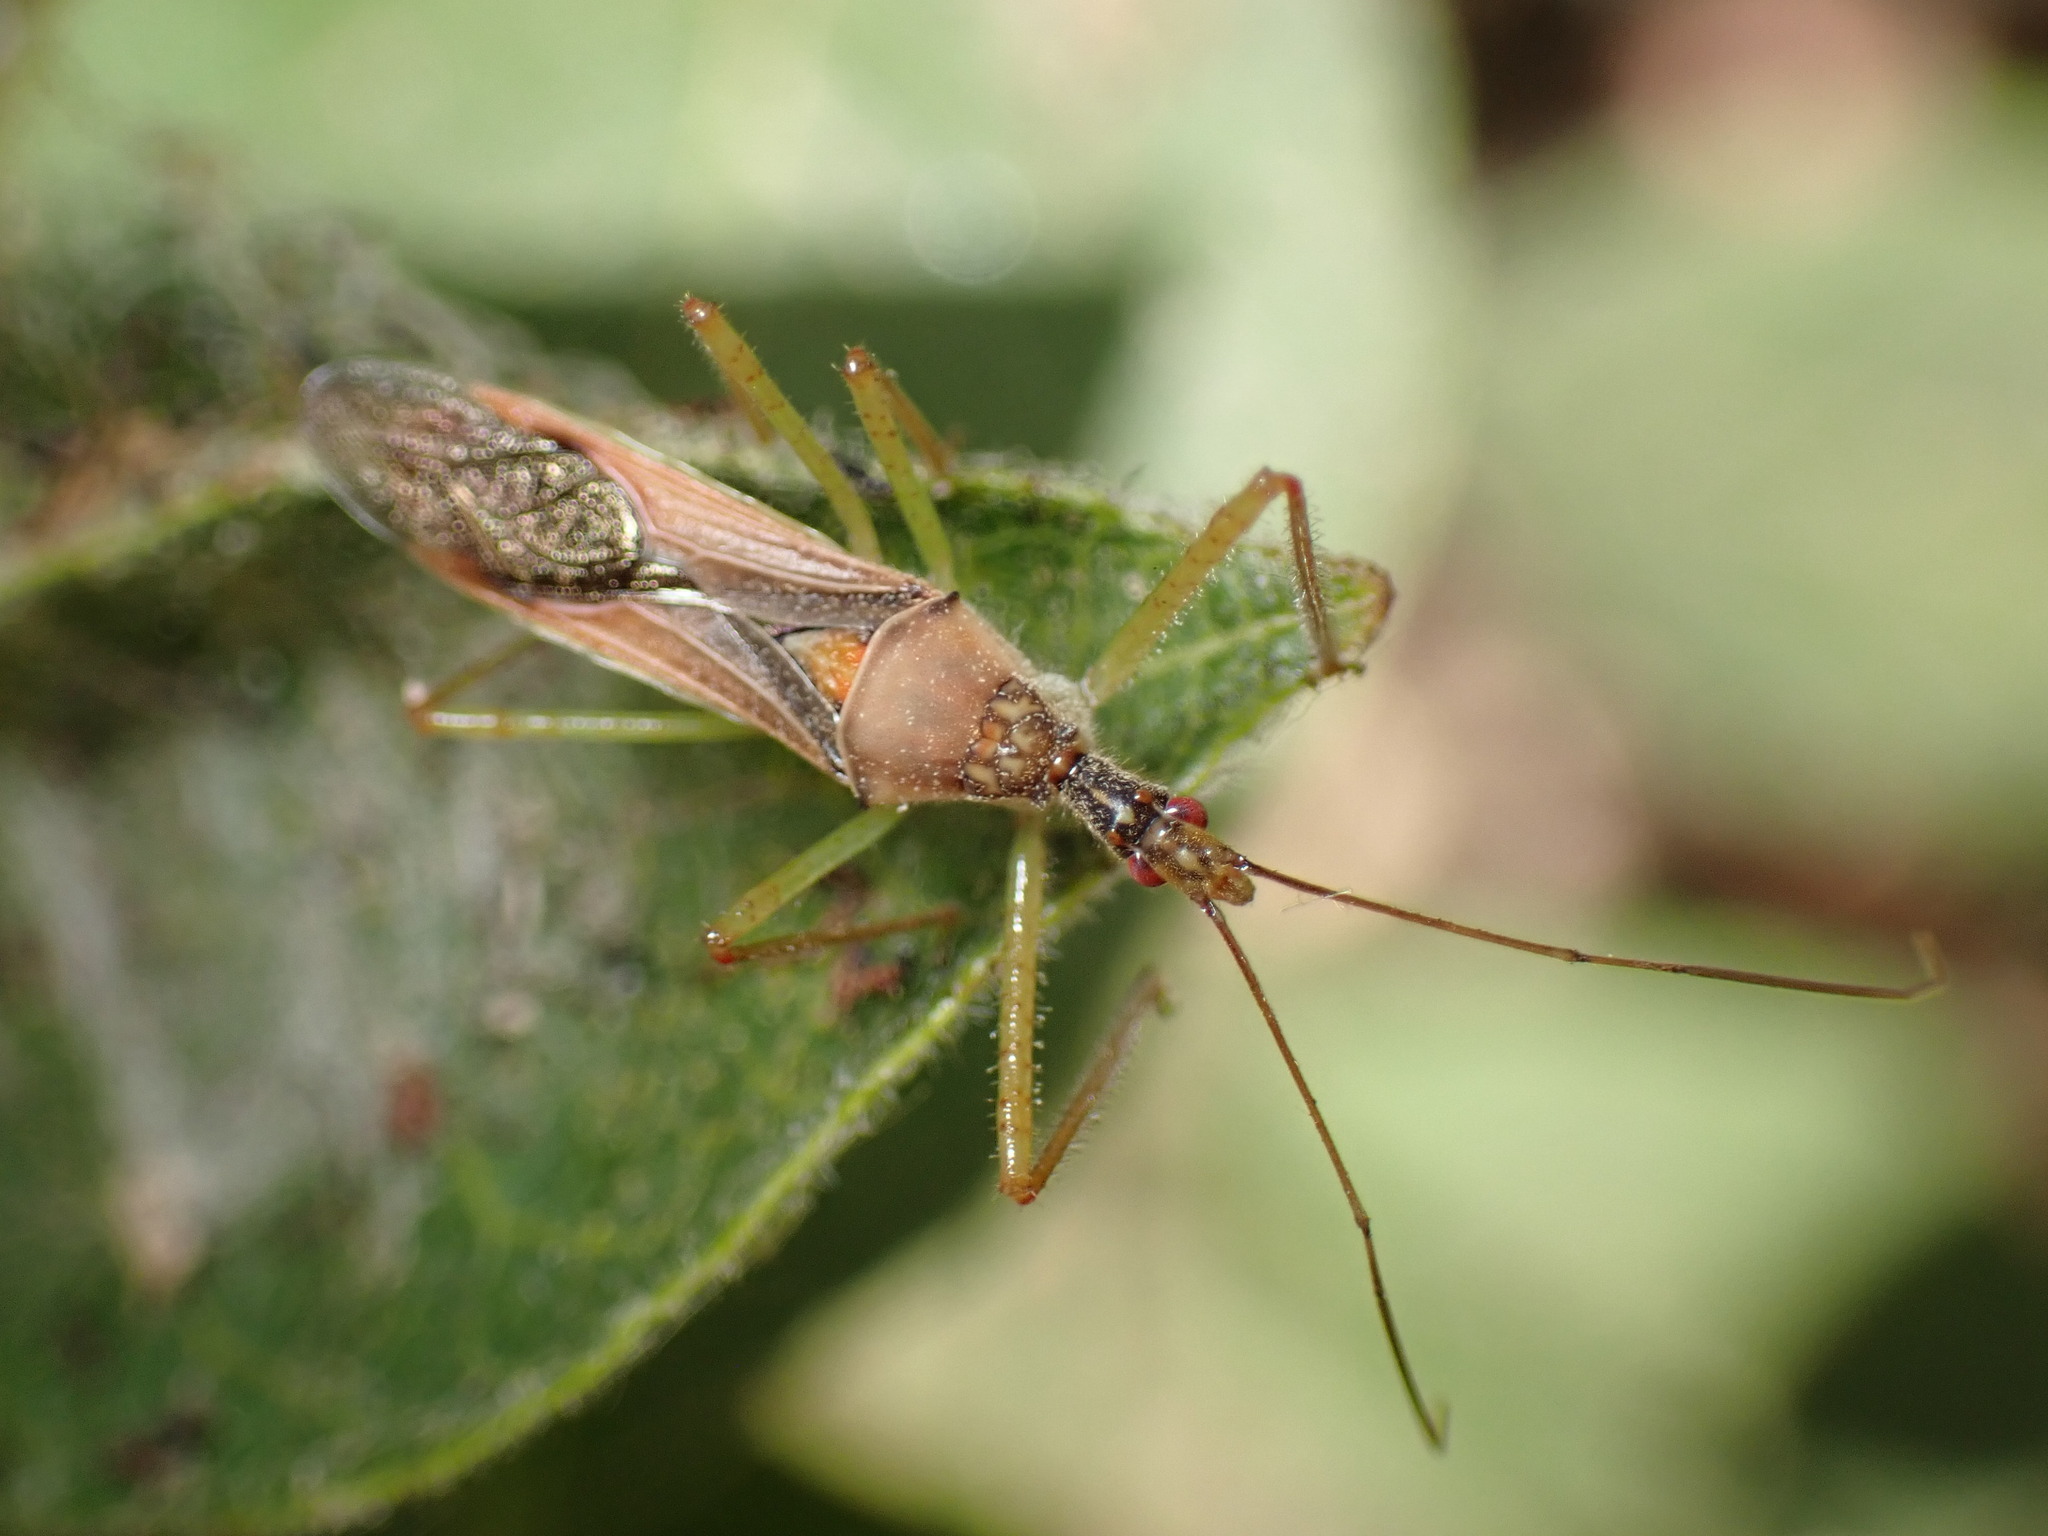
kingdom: Animalia
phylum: Arthropoda
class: Insecta
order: Hemiptera
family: Reduviidae
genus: Zelus
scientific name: Zelus renardii
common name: Assassin bug
